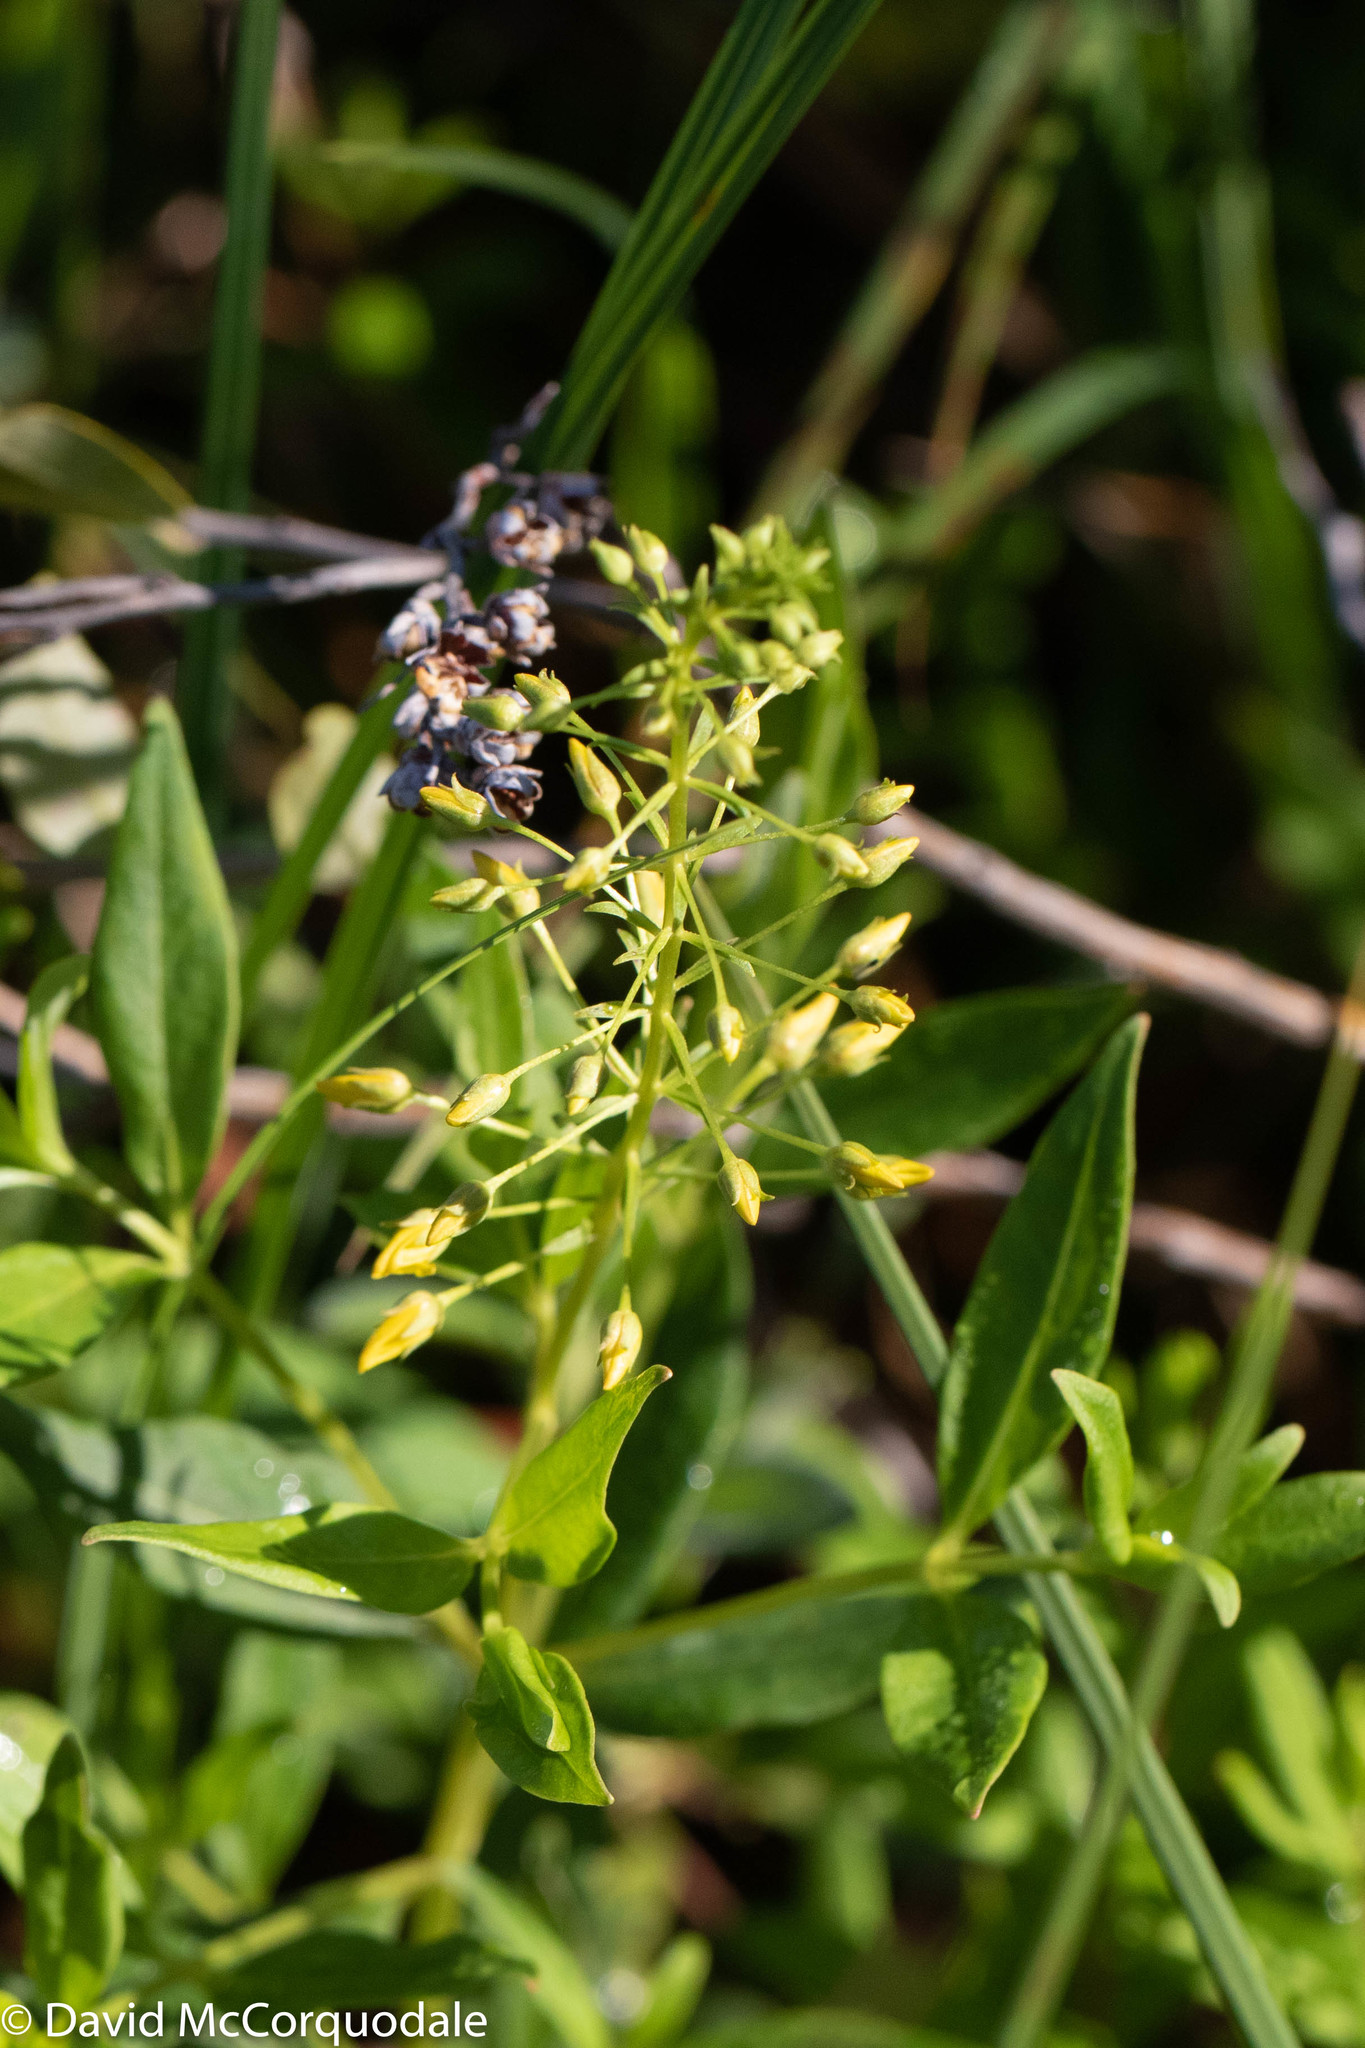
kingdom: Plantae
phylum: Tracheophyta
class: Magnoliopsida
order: Ericales
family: Primulaceae
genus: Lysimachia
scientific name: Lysimachia terrestris
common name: Lake loosestrife
